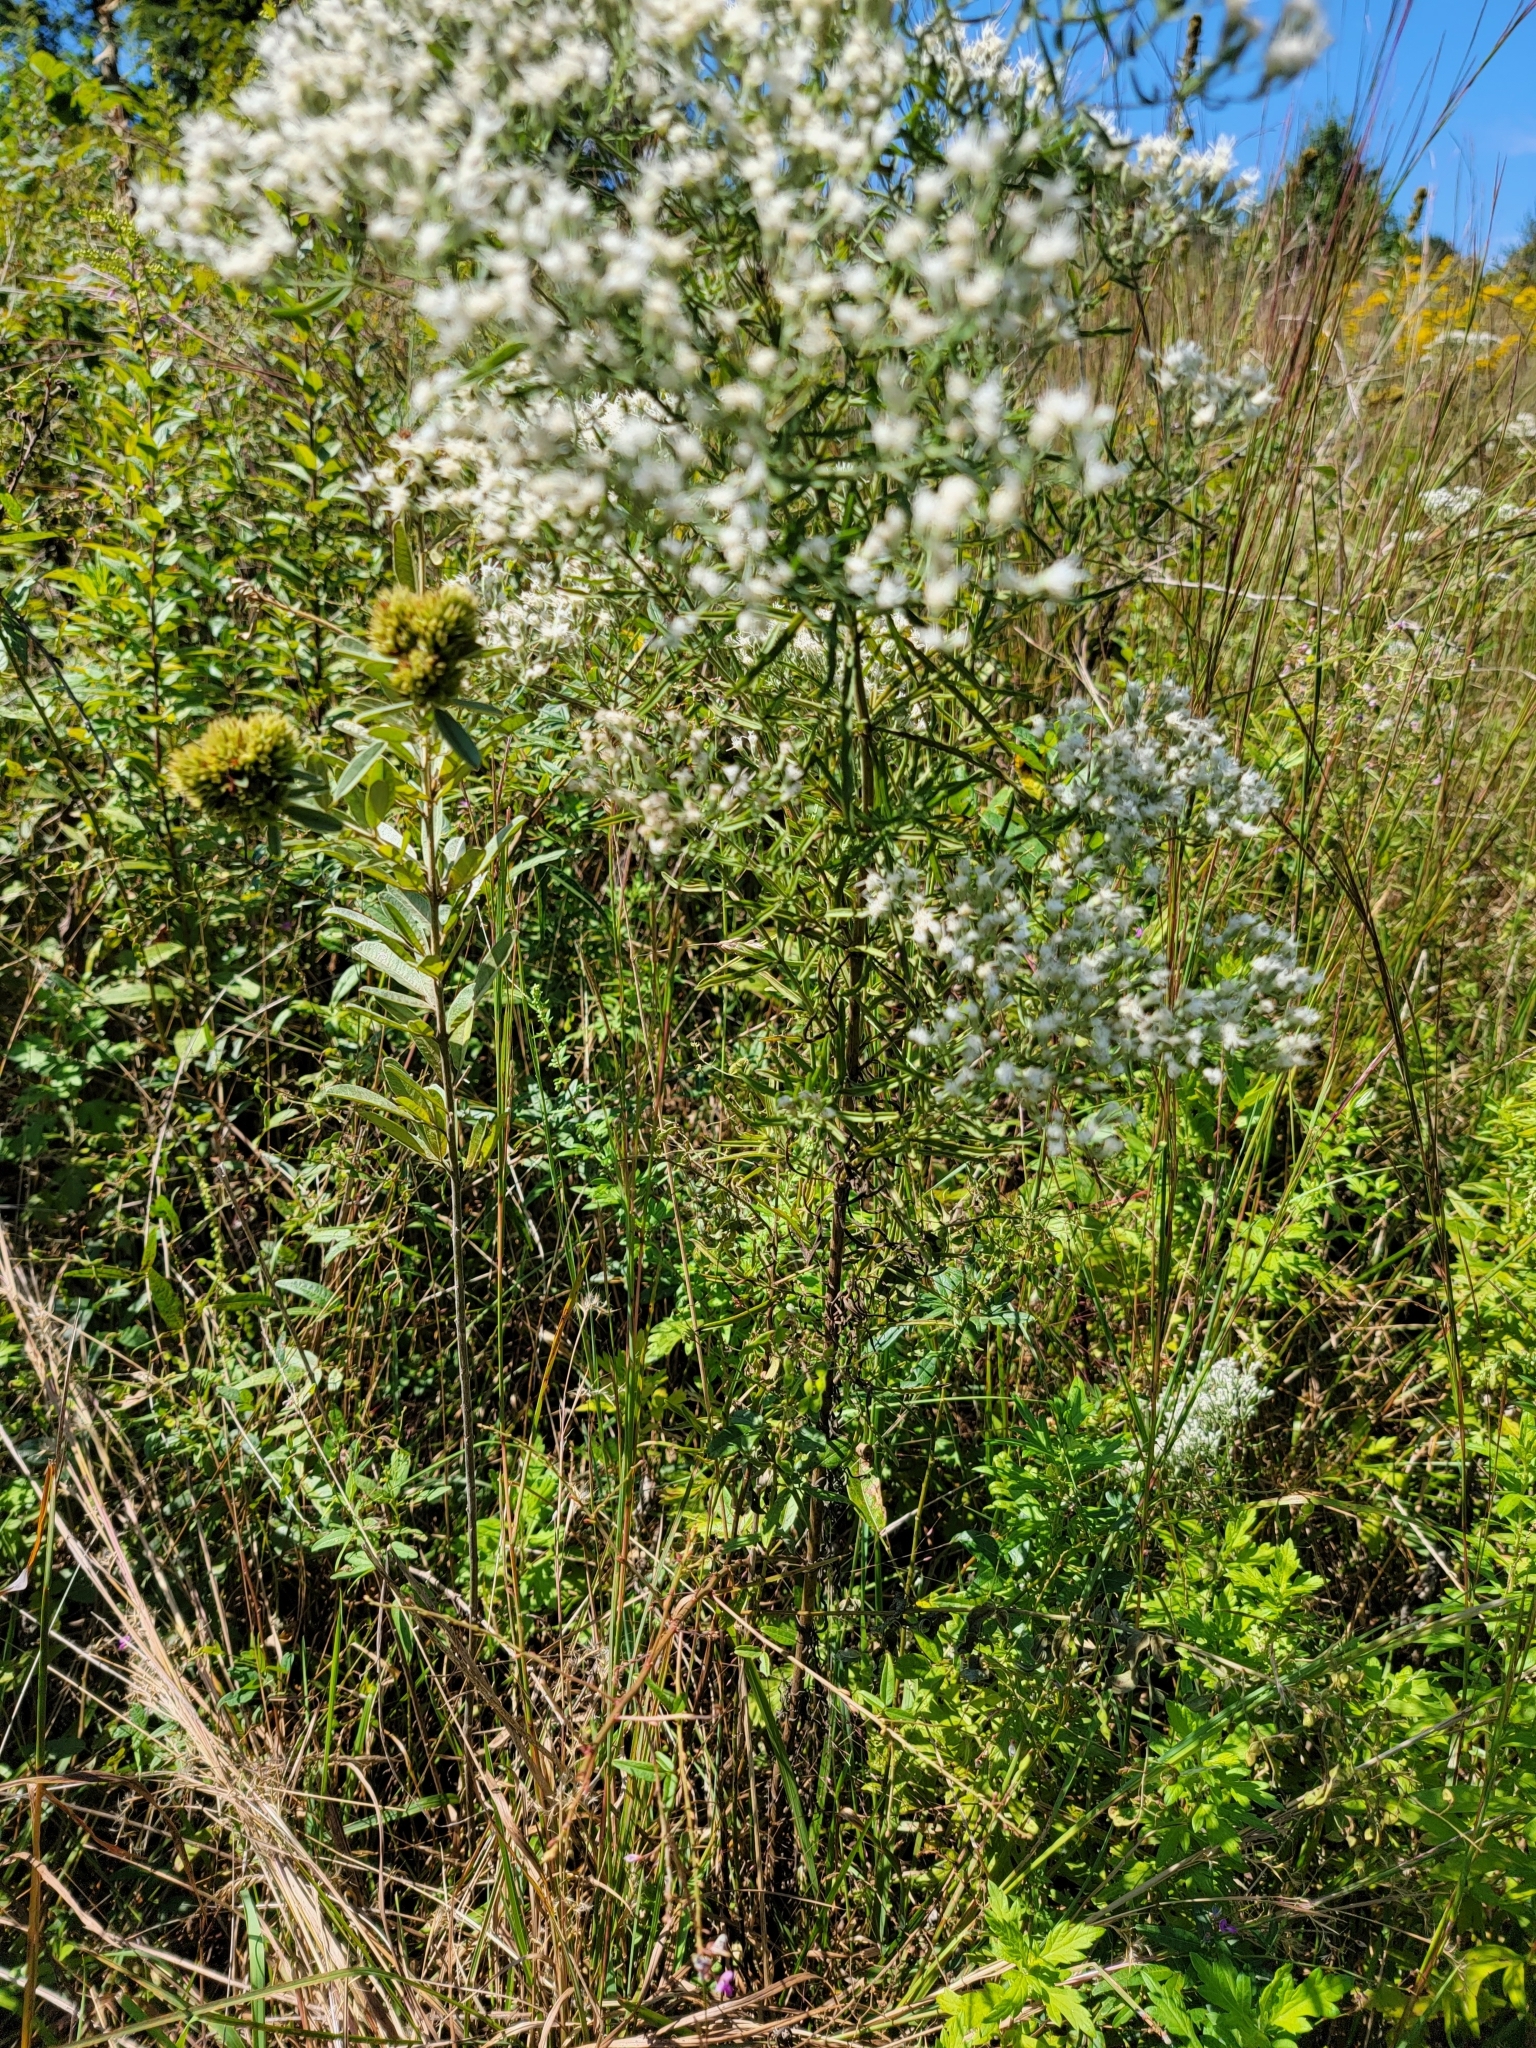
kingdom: Plantae
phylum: Tracheophyta
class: Magnoliopsida
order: Asterales
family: Asteraceae
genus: Eupatorium
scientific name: Eupatorium hyssopifolium
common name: Hyssop-leaf thoroughwort
